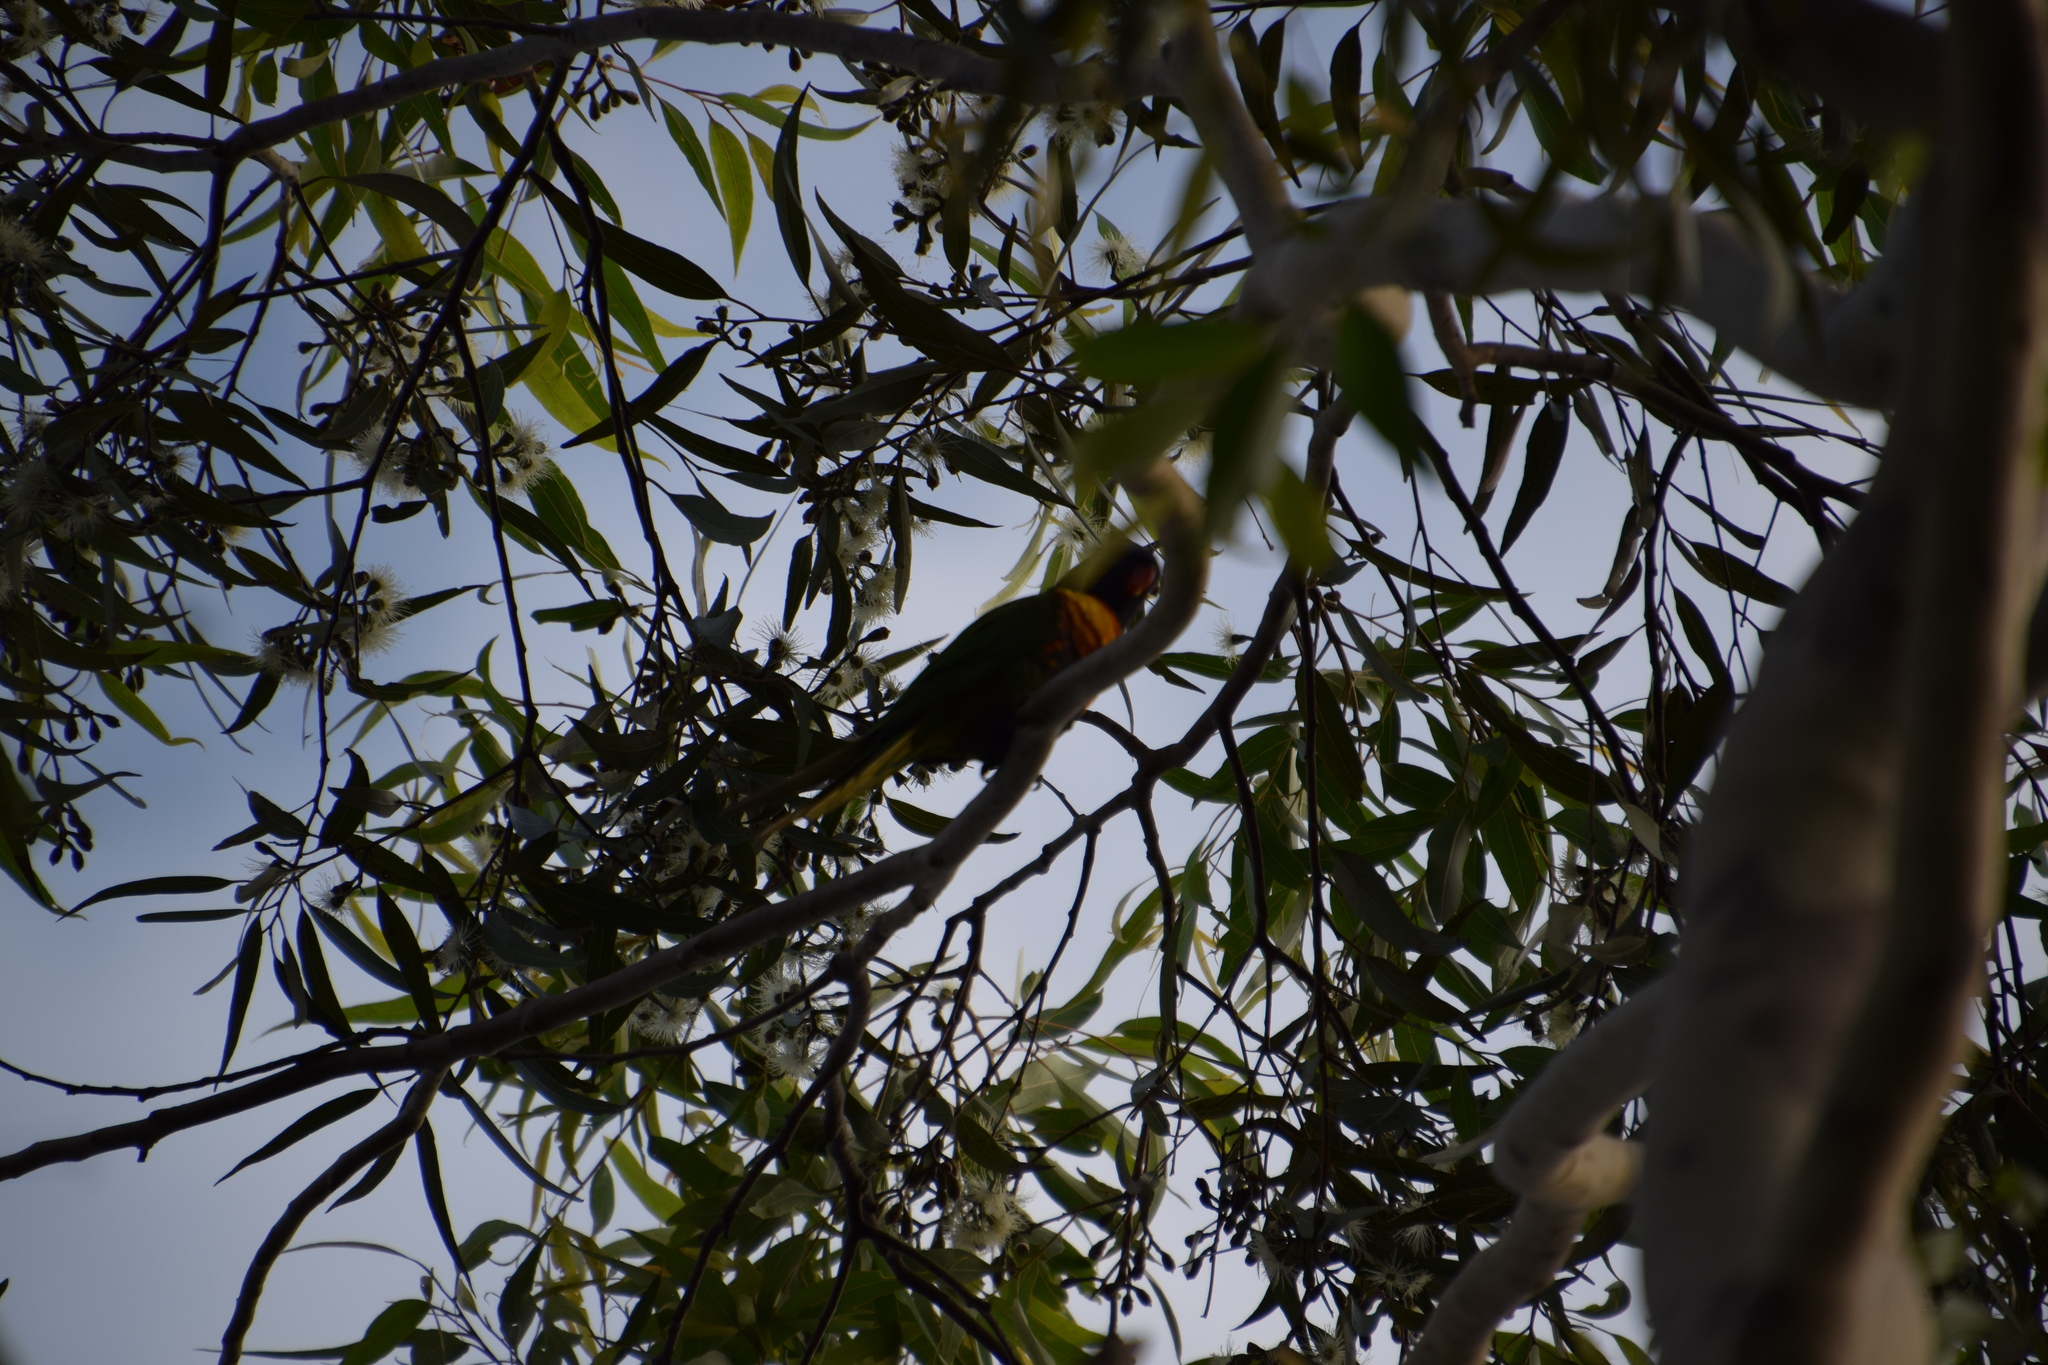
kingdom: Animalia
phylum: Chordata
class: Aves
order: Psittaciformes
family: Psittacidae
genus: Trichoglossus
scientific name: Trichoglossus haematodus
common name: Coconut lorikeet
